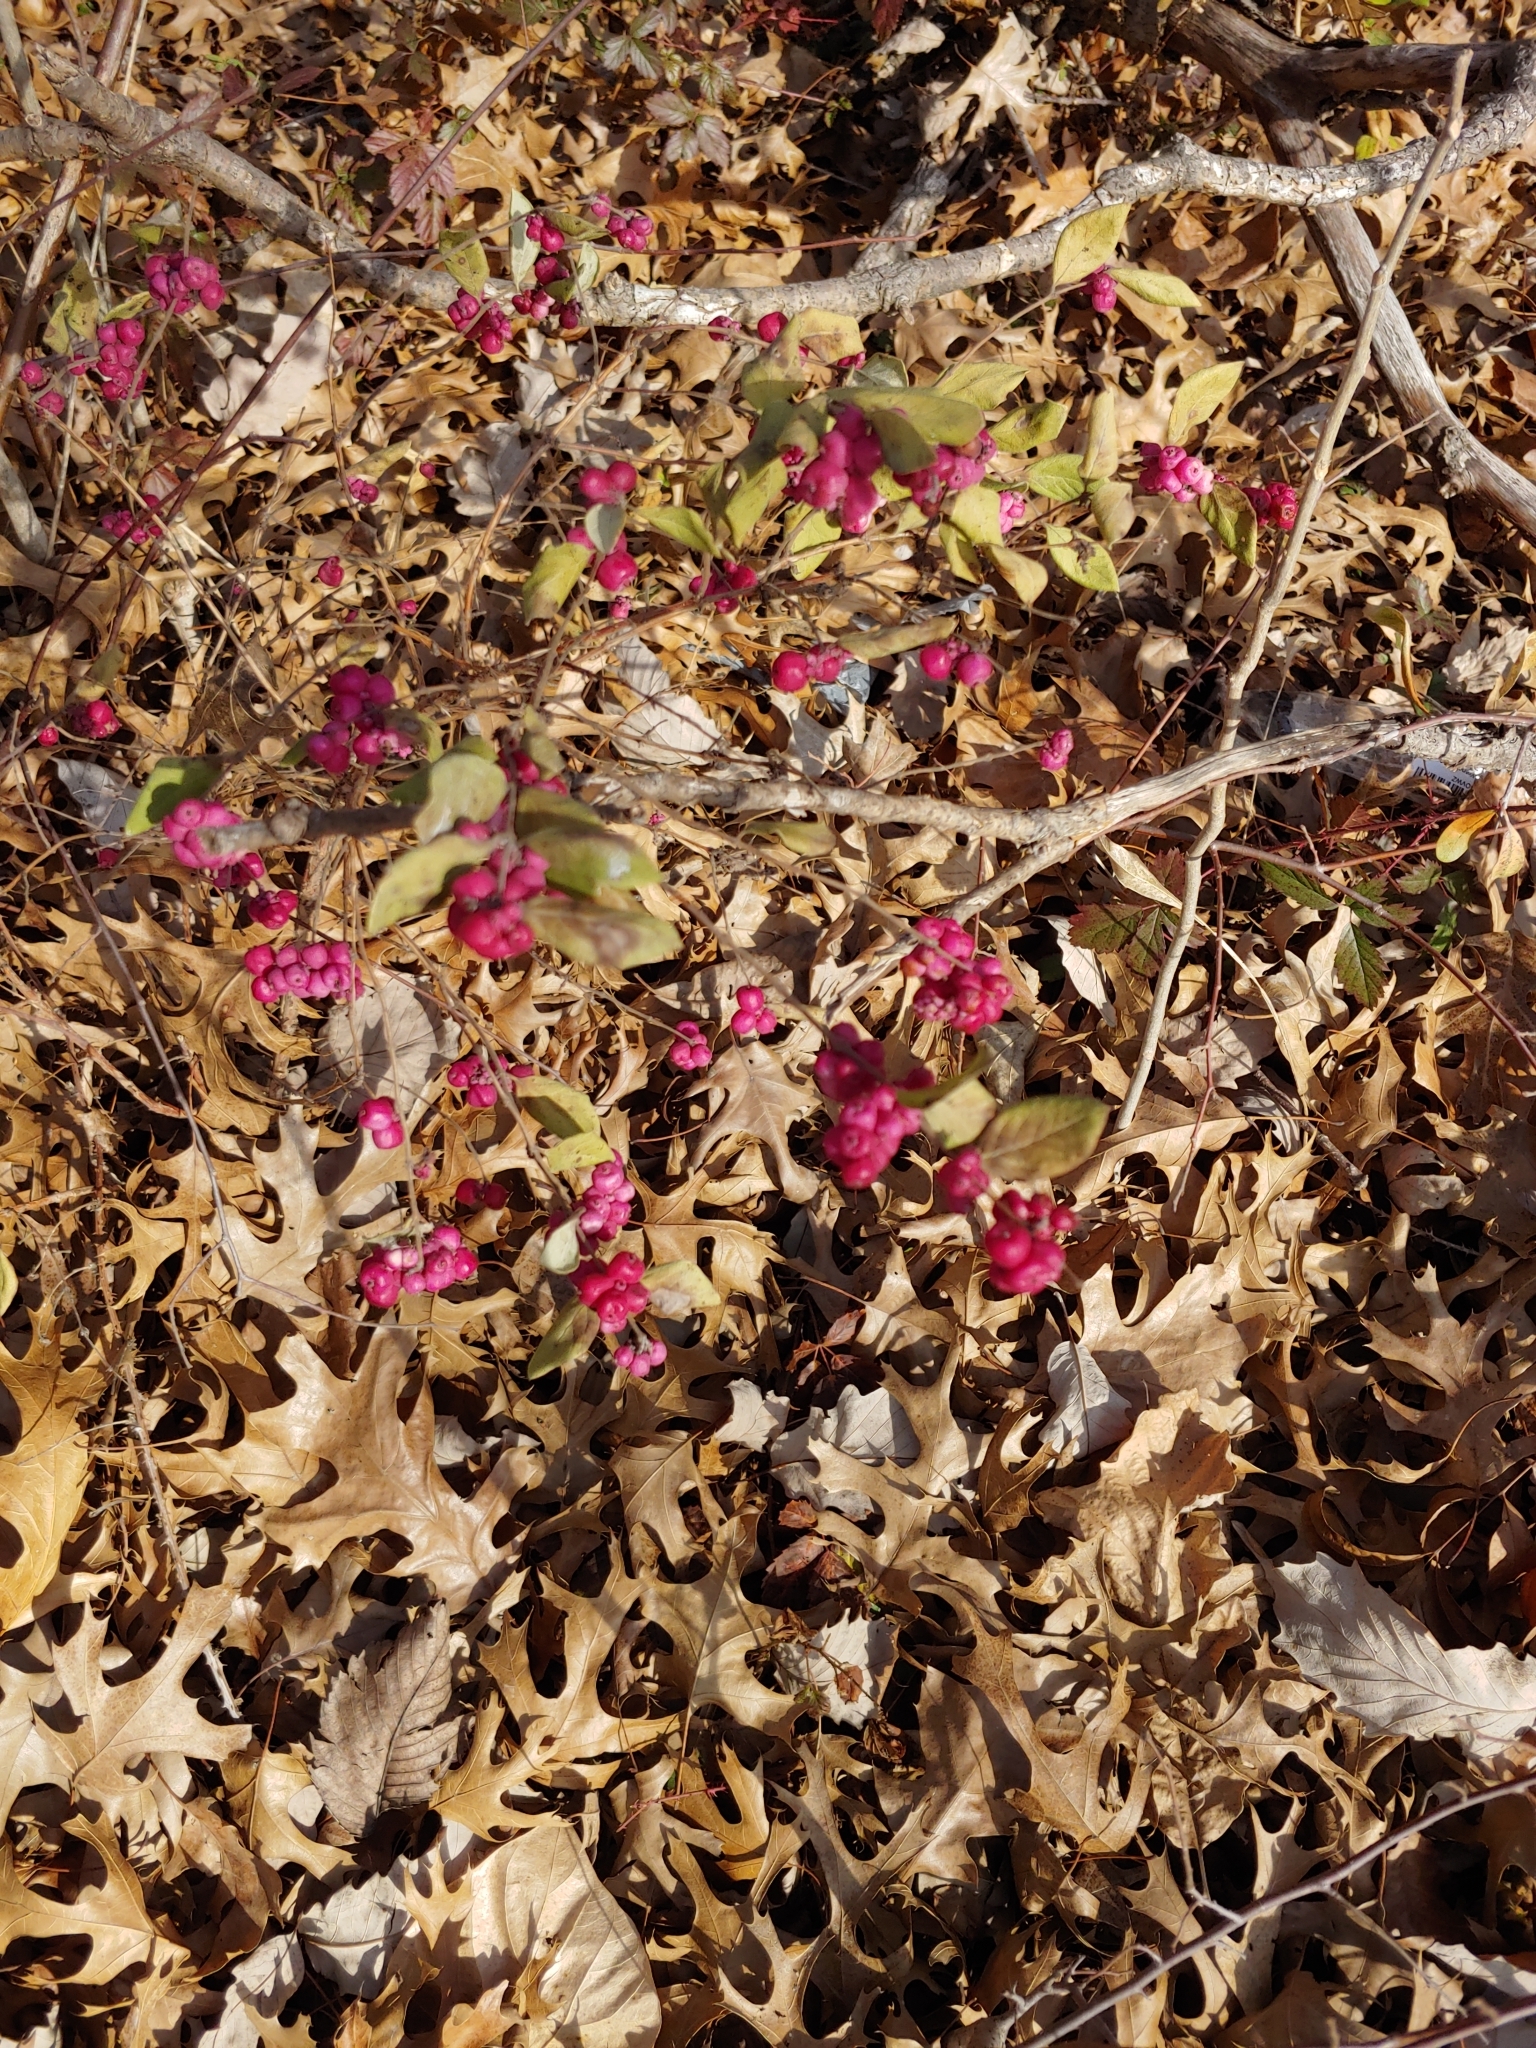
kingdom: Plantae
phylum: Tracheophyta
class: Magnoliopsida
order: Dipsacales
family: Caprifoliaceae
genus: Symphoricarpos
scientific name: Symphoricarpos orbiculatus
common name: Coralberry
